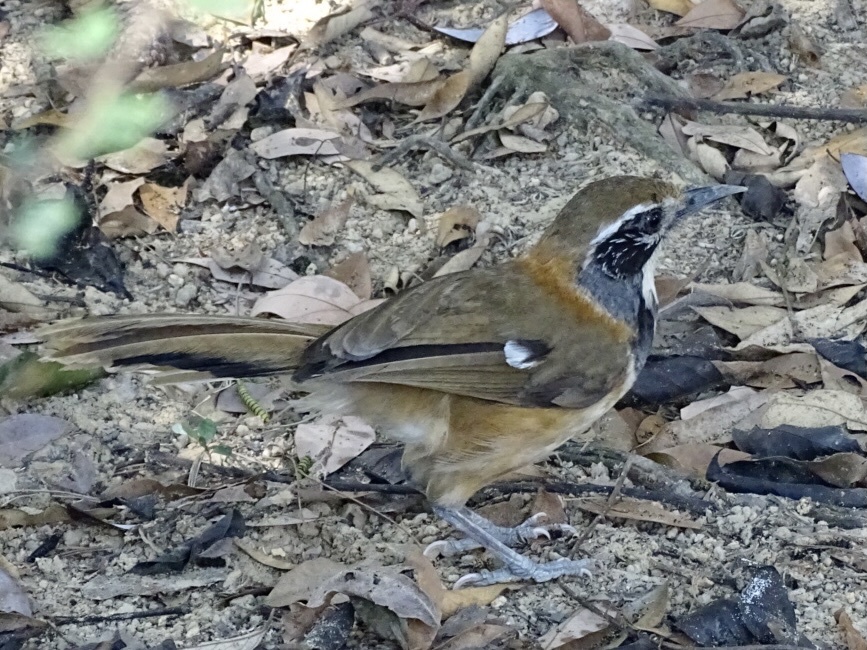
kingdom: Animalia
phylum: Chordata
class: Aves
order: Passeriformes
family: Leiothrichidae
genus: Garrulax
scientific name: Garrulax pectoralis
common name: Greater necklaced laughingthrush
